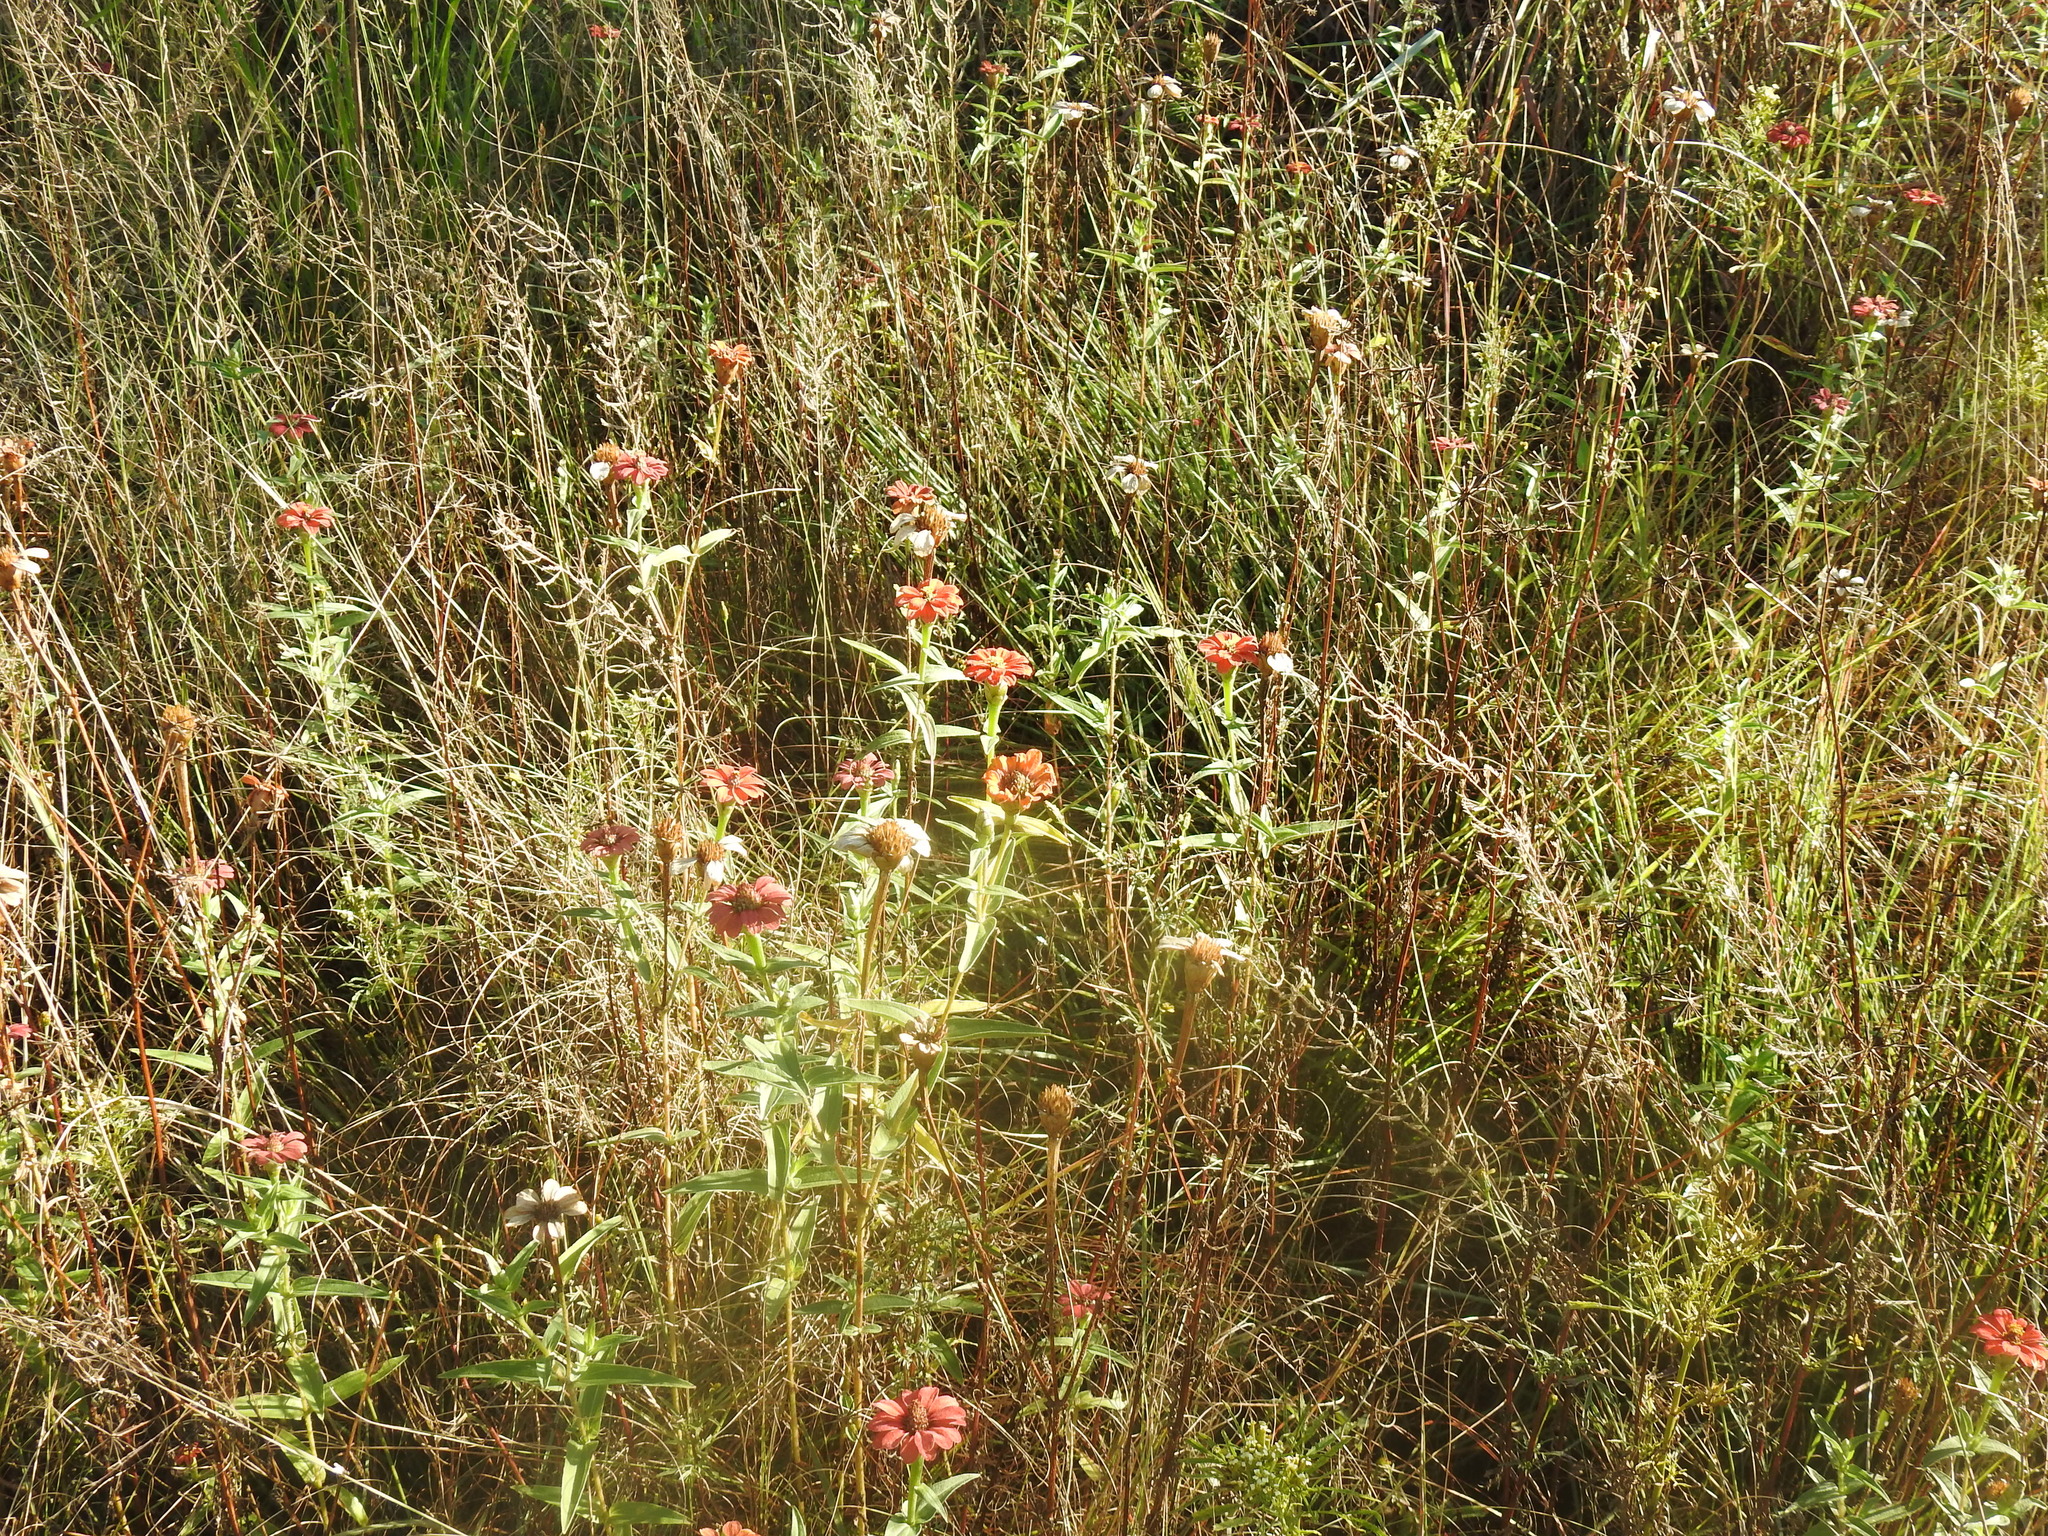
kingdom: Plantae
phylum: Tracheophyta
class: Magnoliopsida
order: Asterales
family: Asteraceae
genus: Zinnia
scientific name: Zinnia peruviana
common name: Peruvian zinnia
